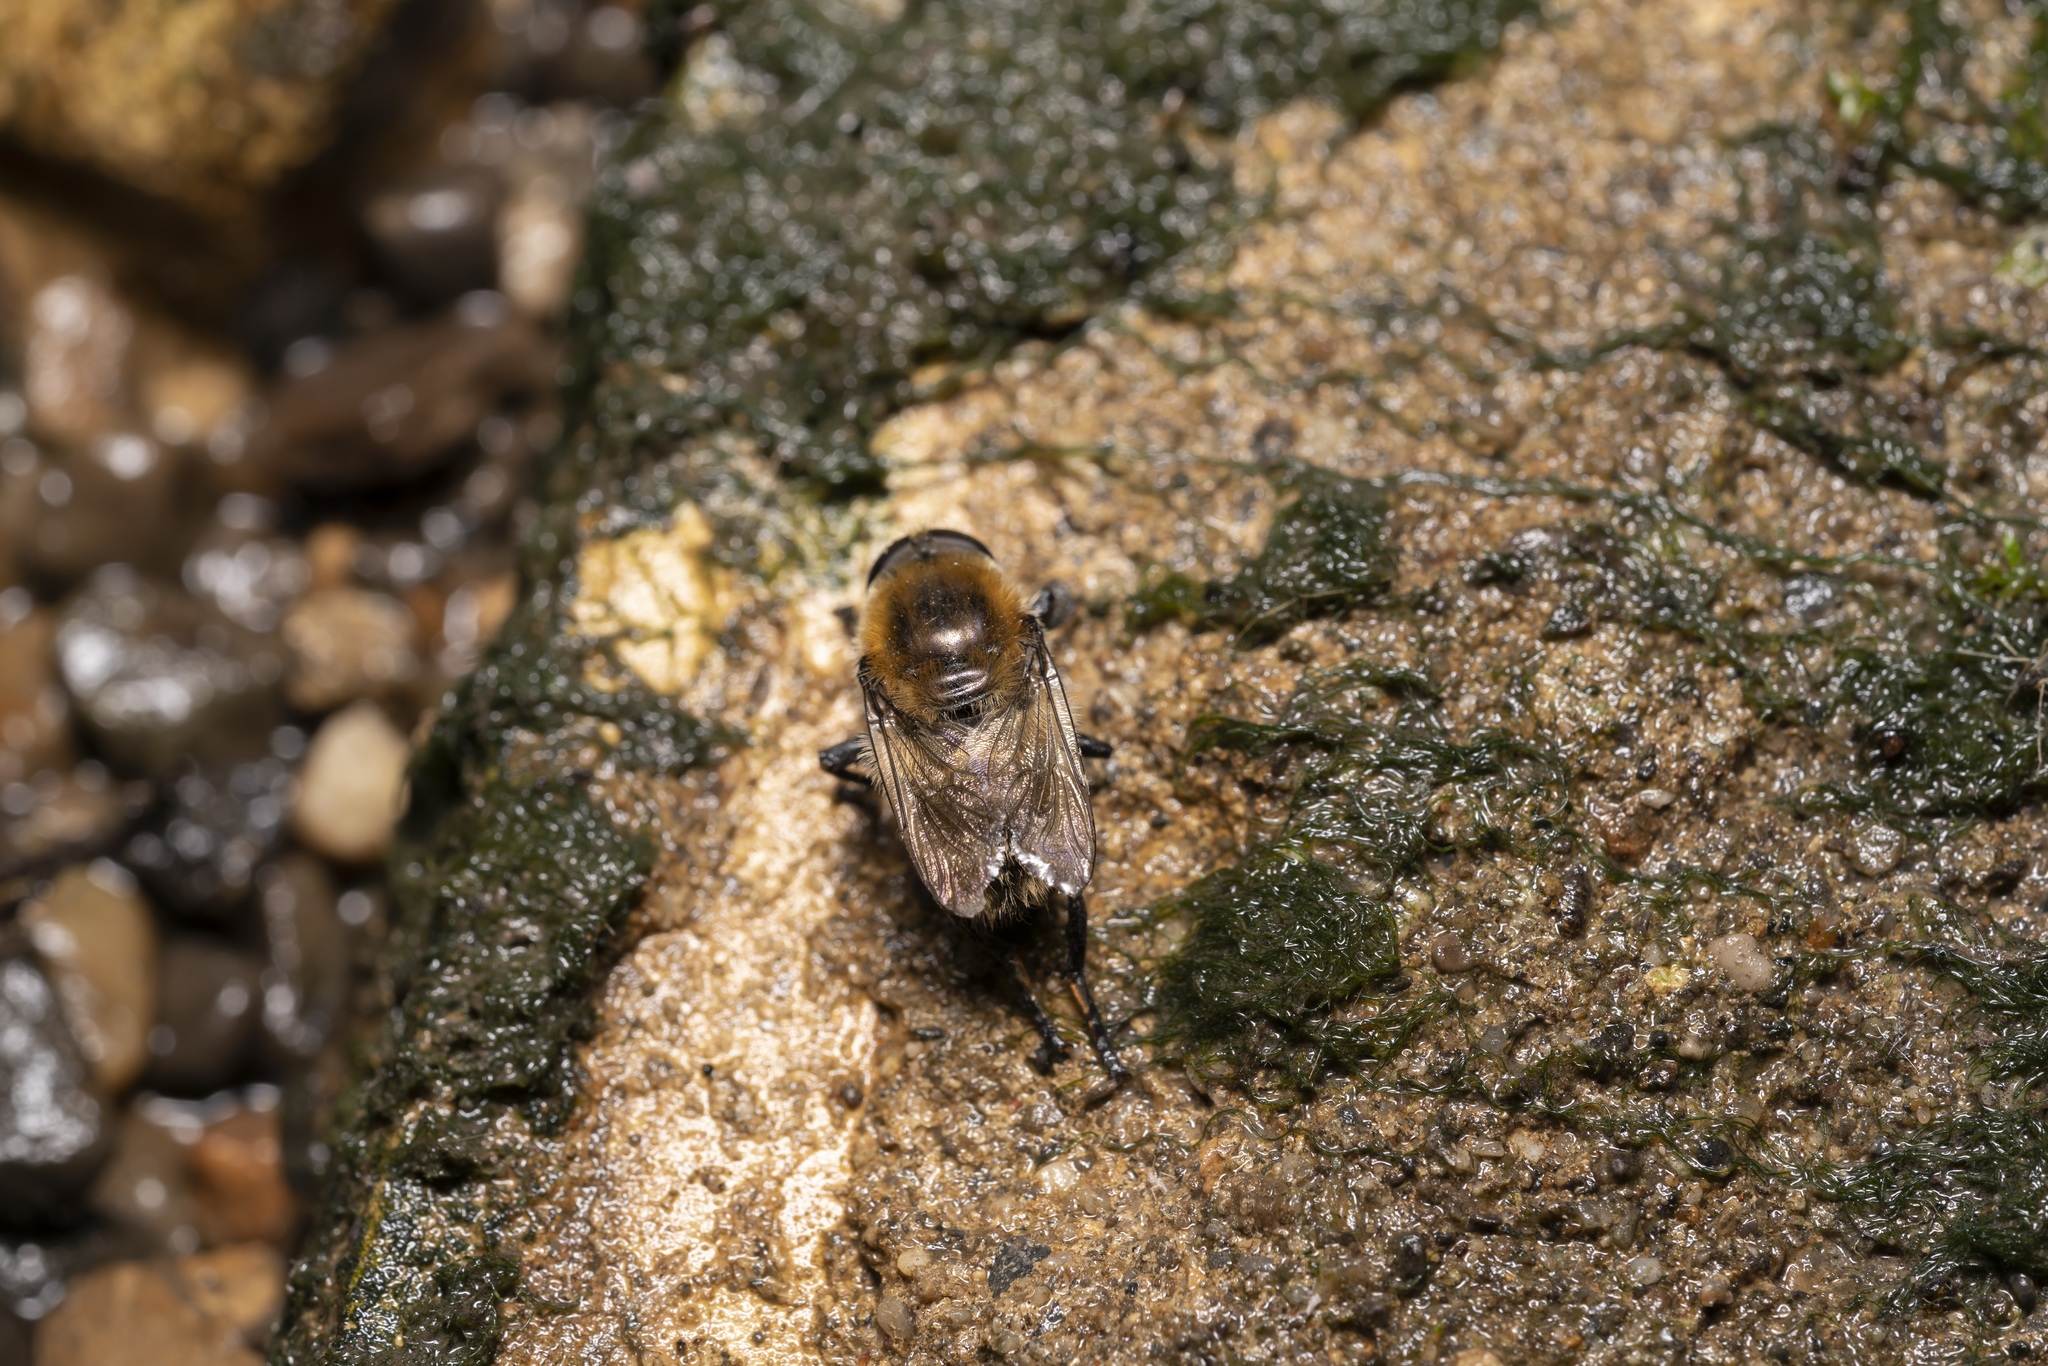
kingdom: Animalia
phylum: Arthropoda
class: Insecta
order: Diptera
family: Syrphidae
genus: Merodon
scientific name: Merodon equestris
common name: Greater bulb-fly
